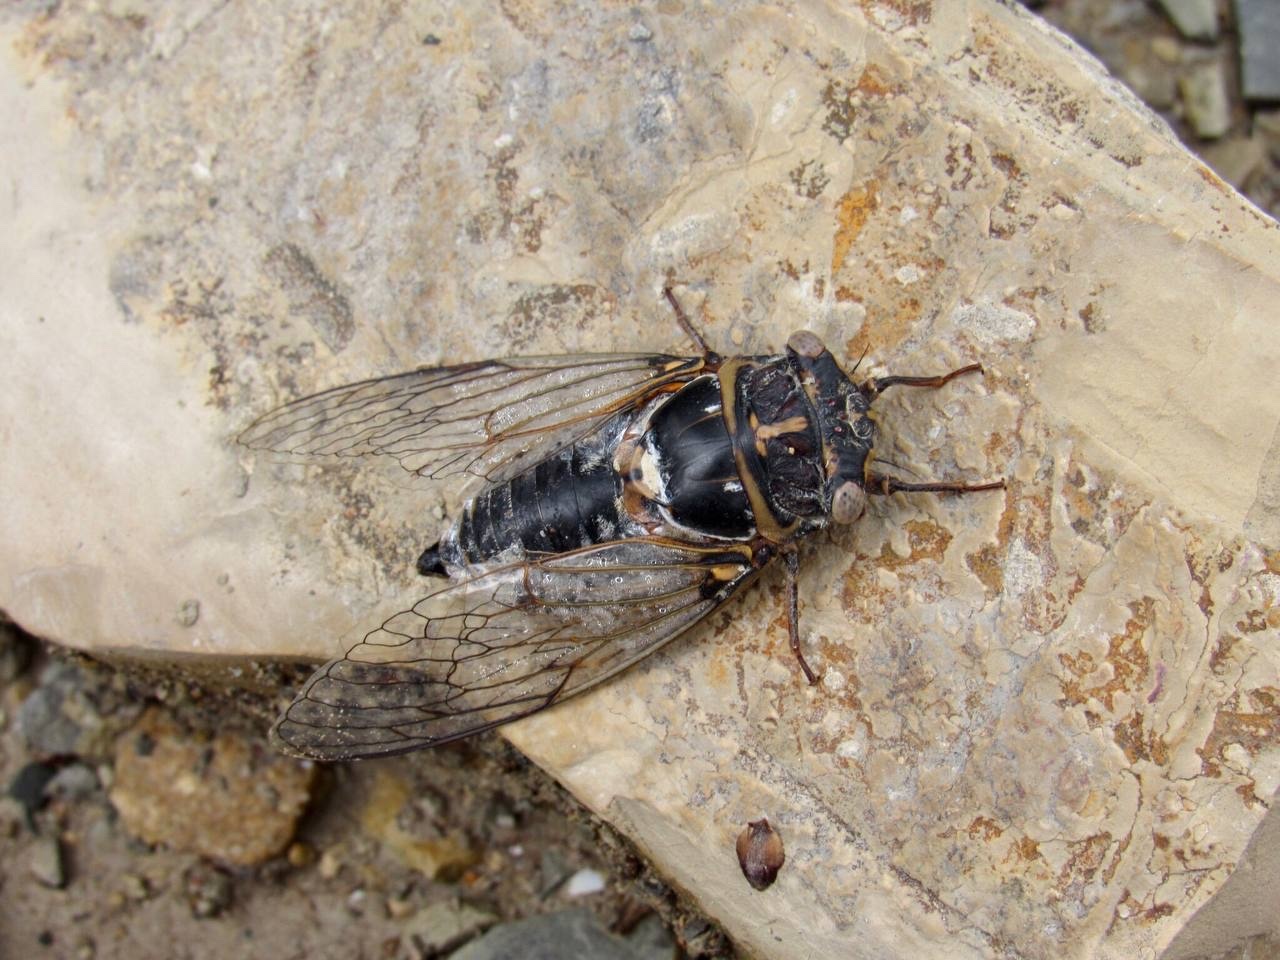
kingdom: Animalia
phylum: Arthropoda
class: Insecta
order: Hemiptera
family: Cicadidae
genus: Lyristes
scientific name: Lyristes plebejus
